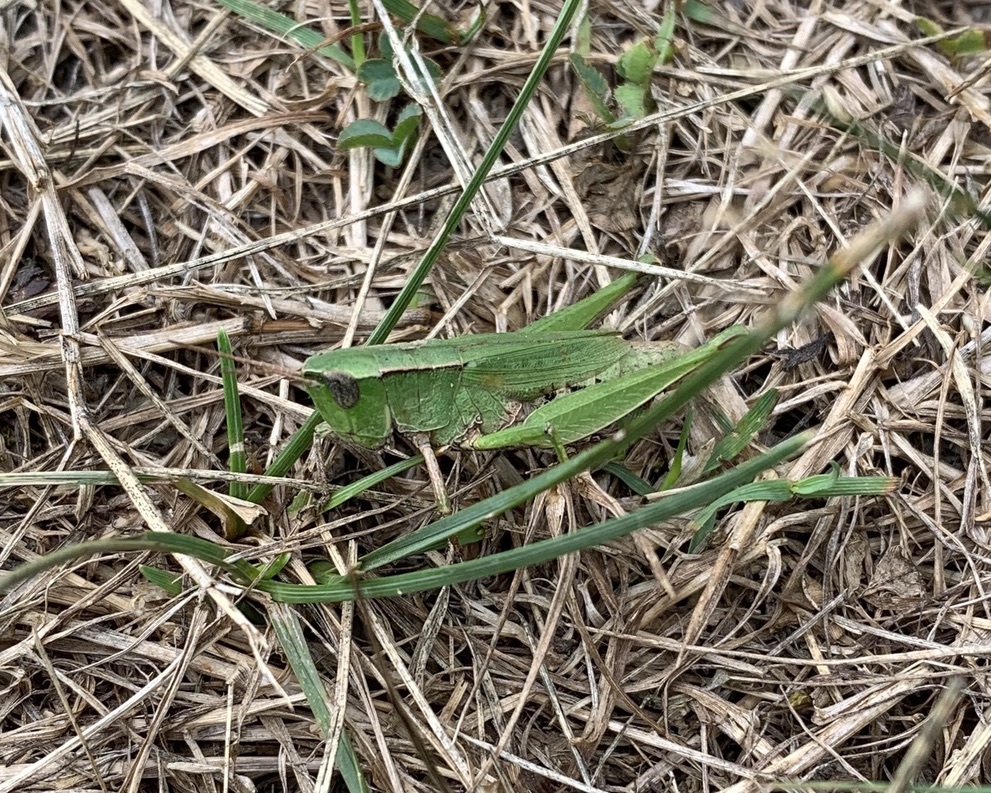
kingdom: Animalia
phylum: Arthropoda
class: Insecta
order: Orthoptera
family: Acrididae
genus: Dichromorpha
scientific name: Dichromorpha viridis
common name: Short-winged green grasshopper
